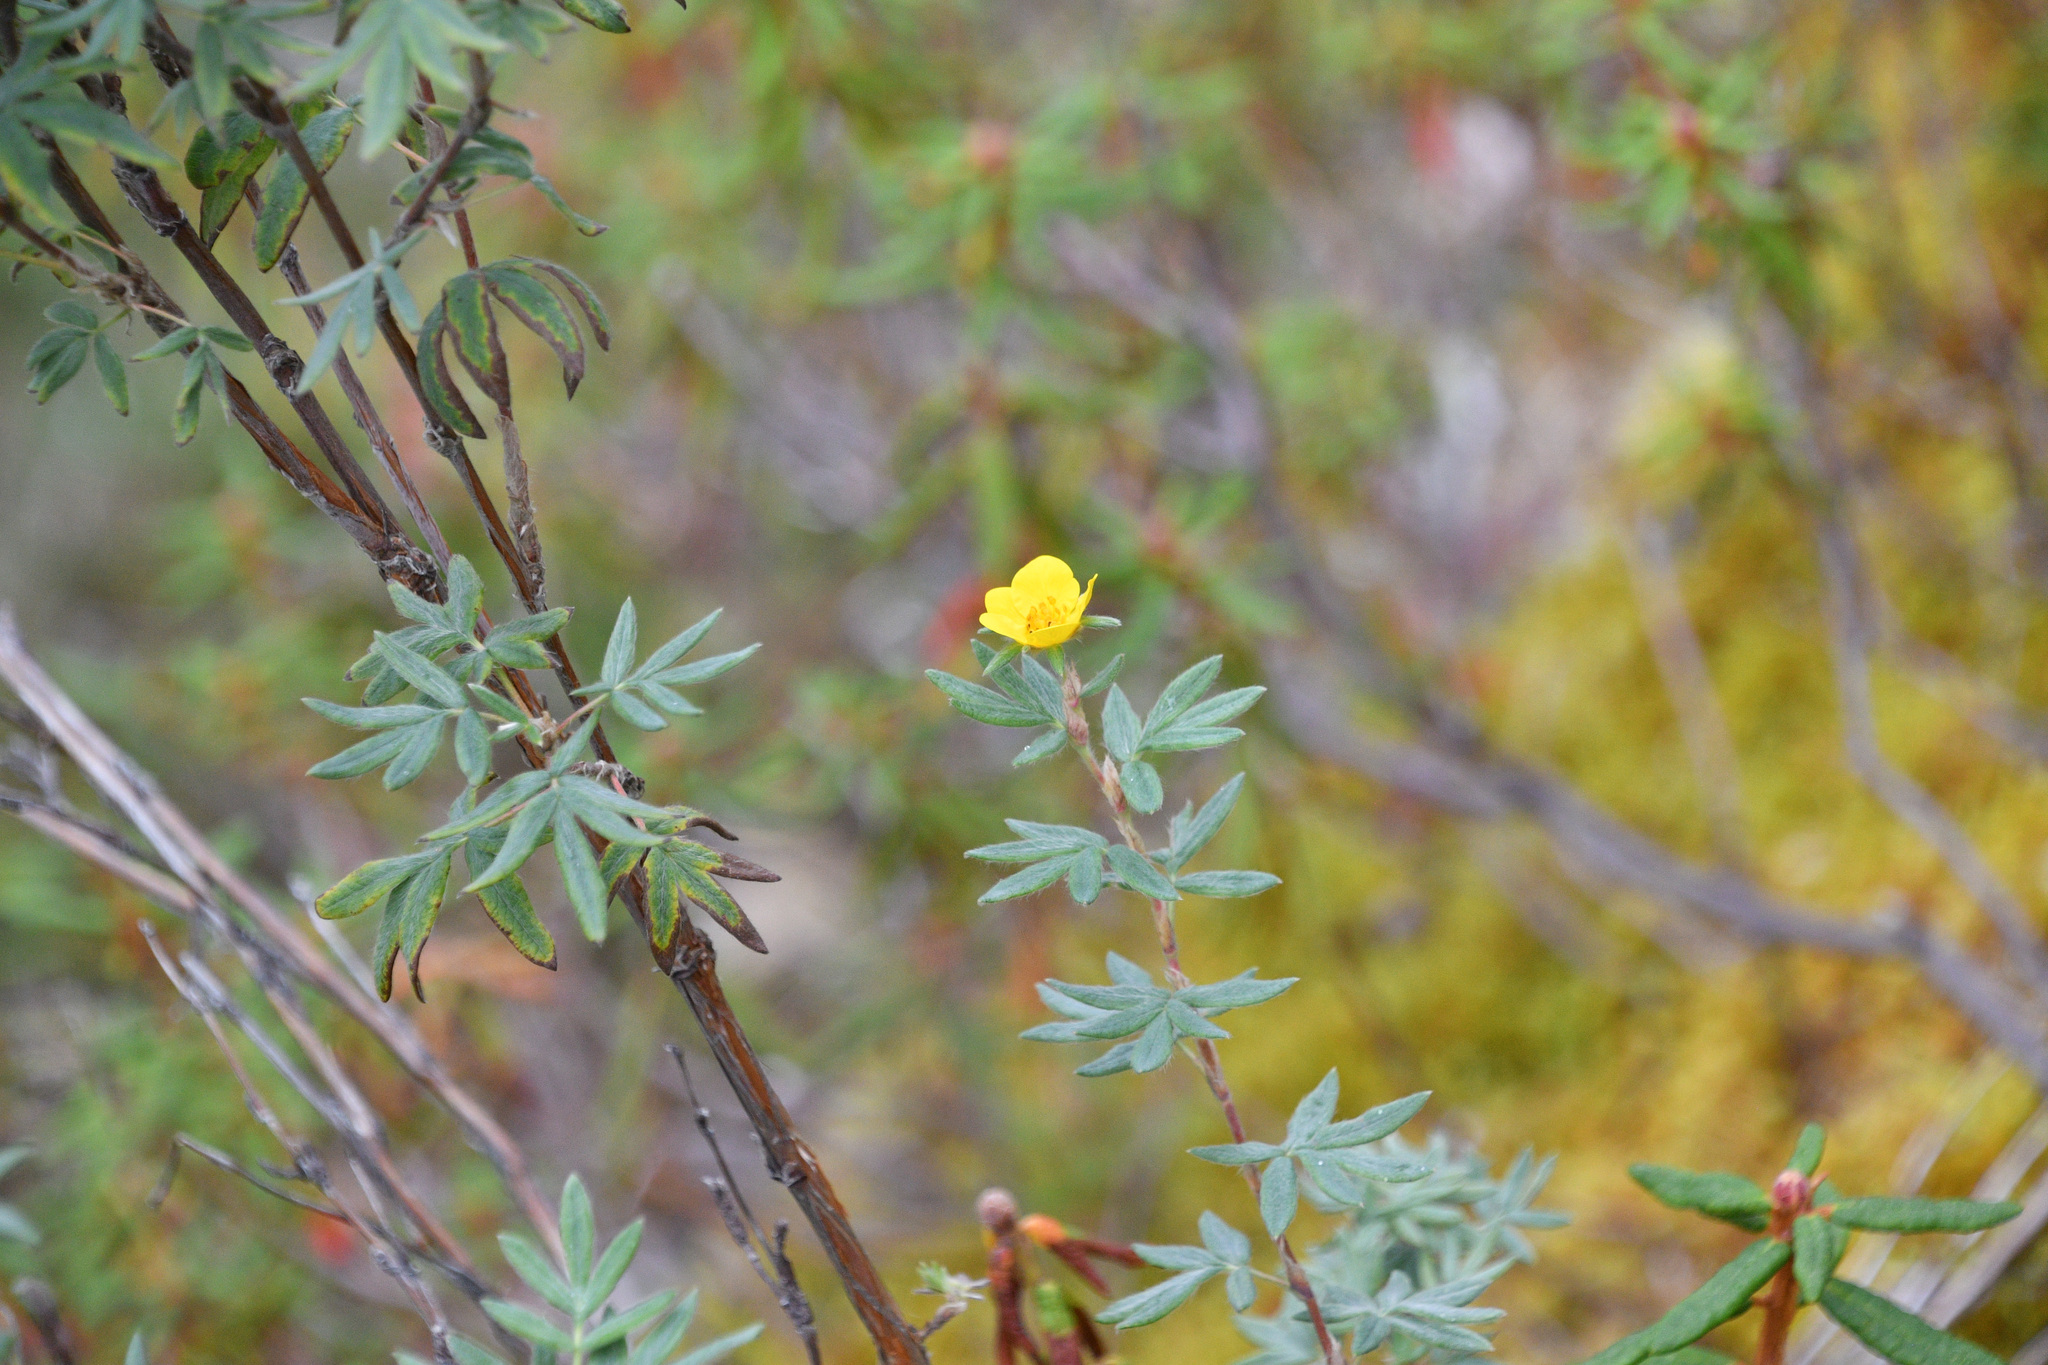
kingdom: Plantae
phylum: Tracheophyta
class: Magnoliopsida
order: Rosales
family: Rosaceae
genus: Dasiphora
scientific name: Dasiphora fruticosa
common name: Shrubby cinquefoil
